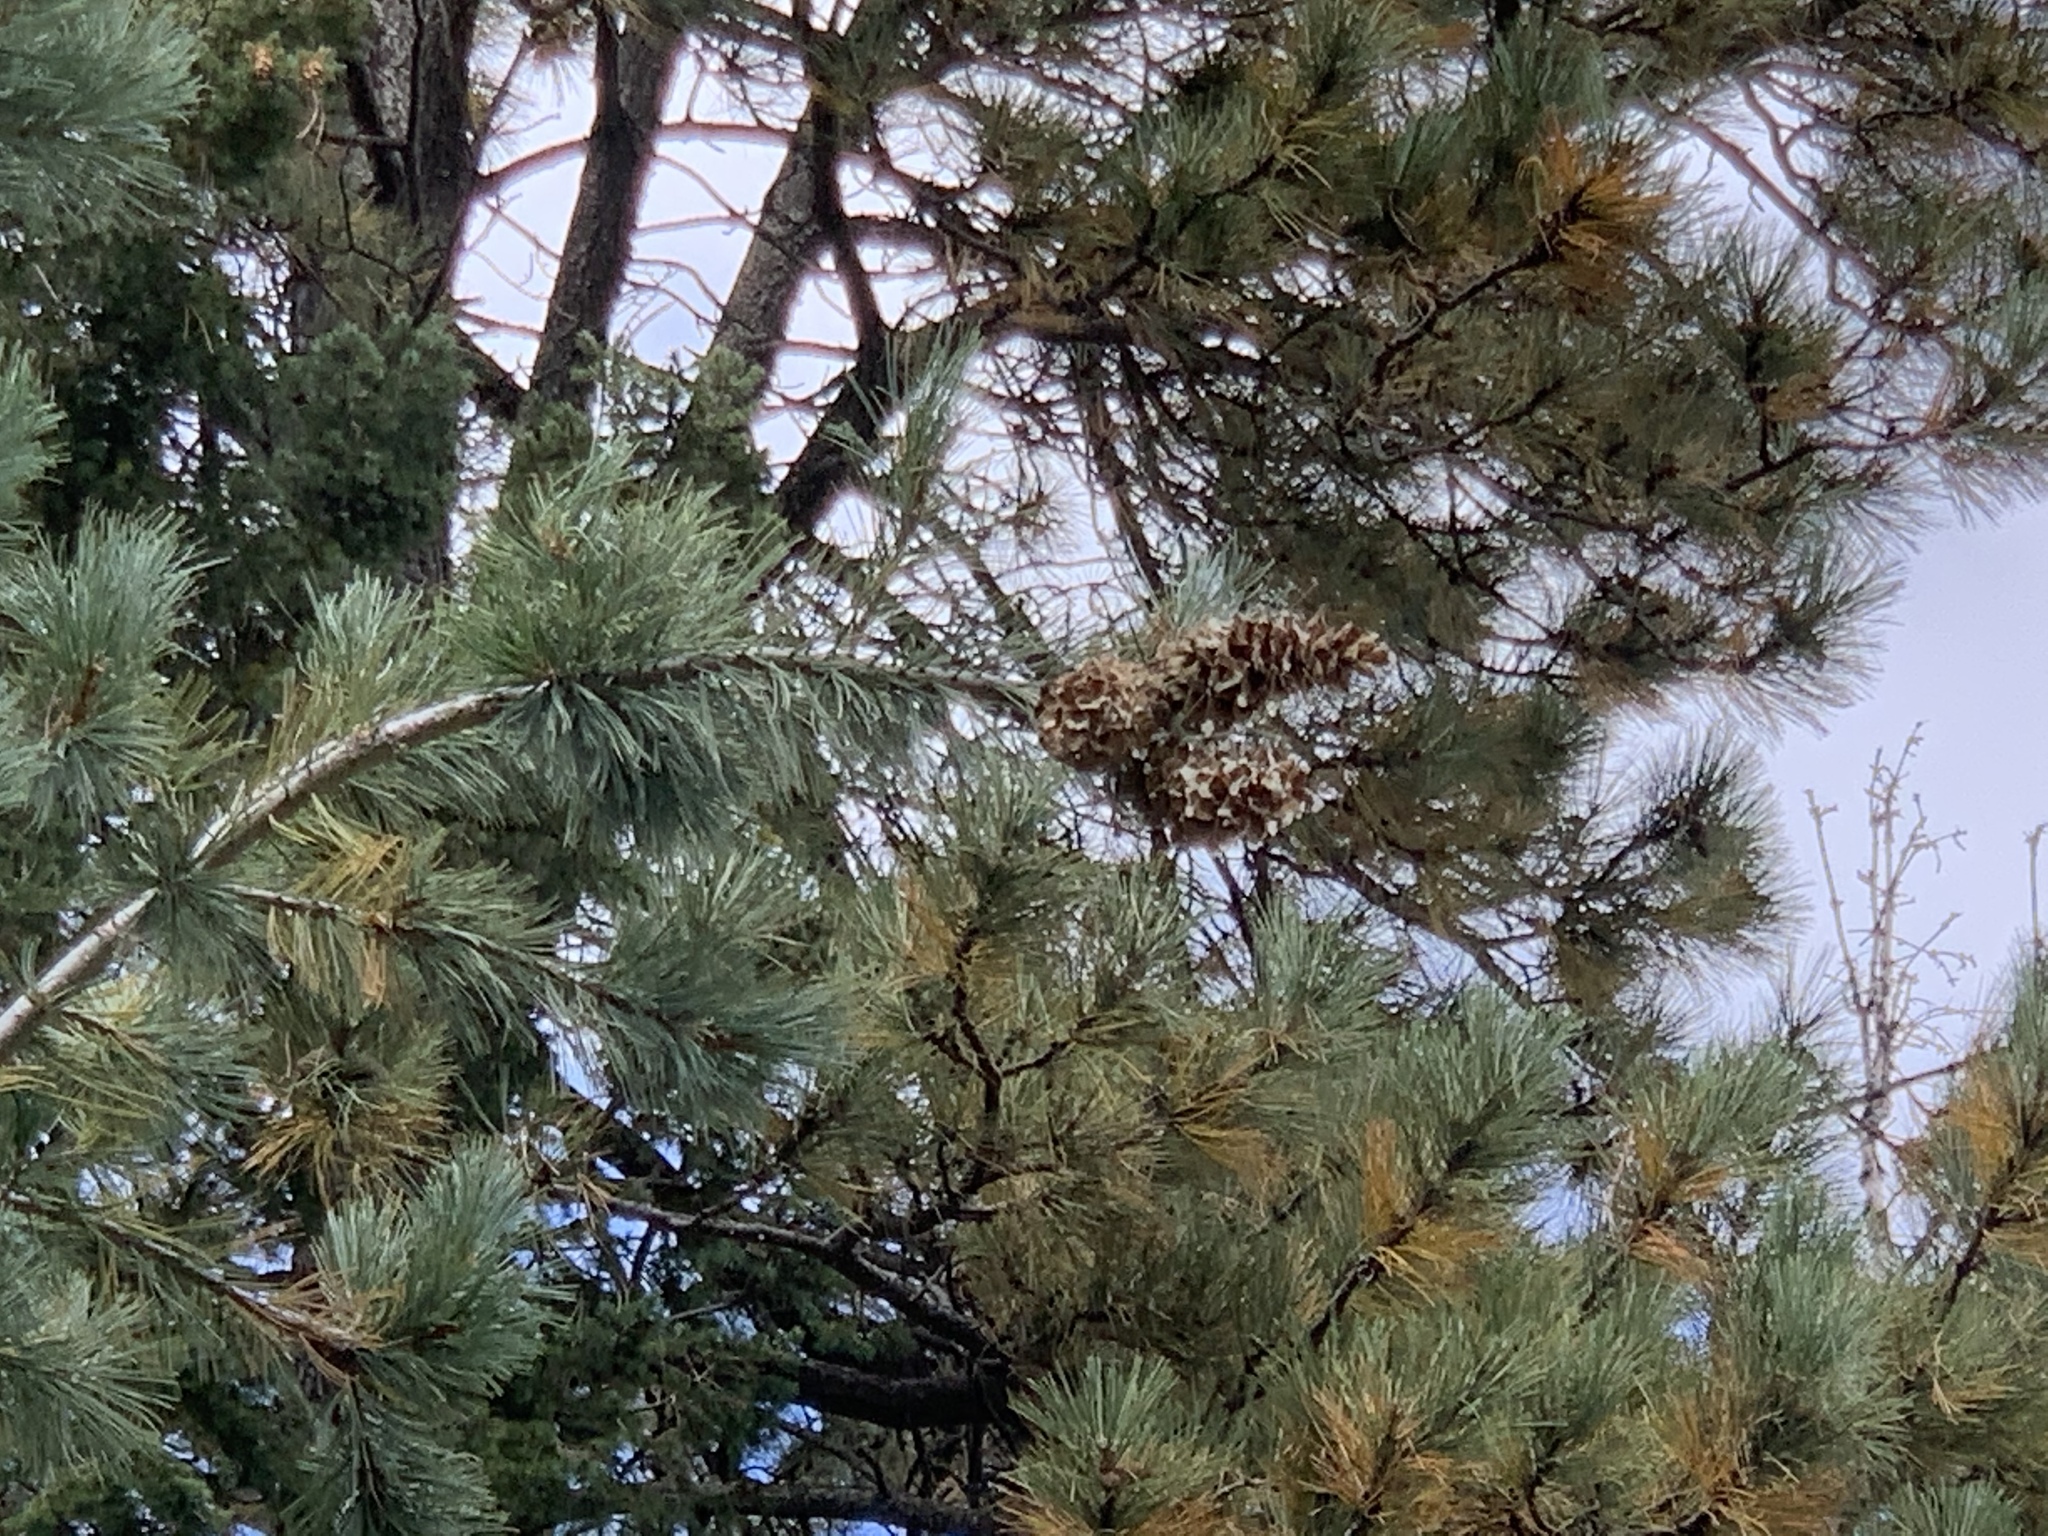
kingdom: Plantae
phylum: Tracheophyta
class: Pinopsida
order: Pinales
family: Pinaceae
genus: Pinus
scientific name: Pinus strobiformis
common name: Southwestern white pine
